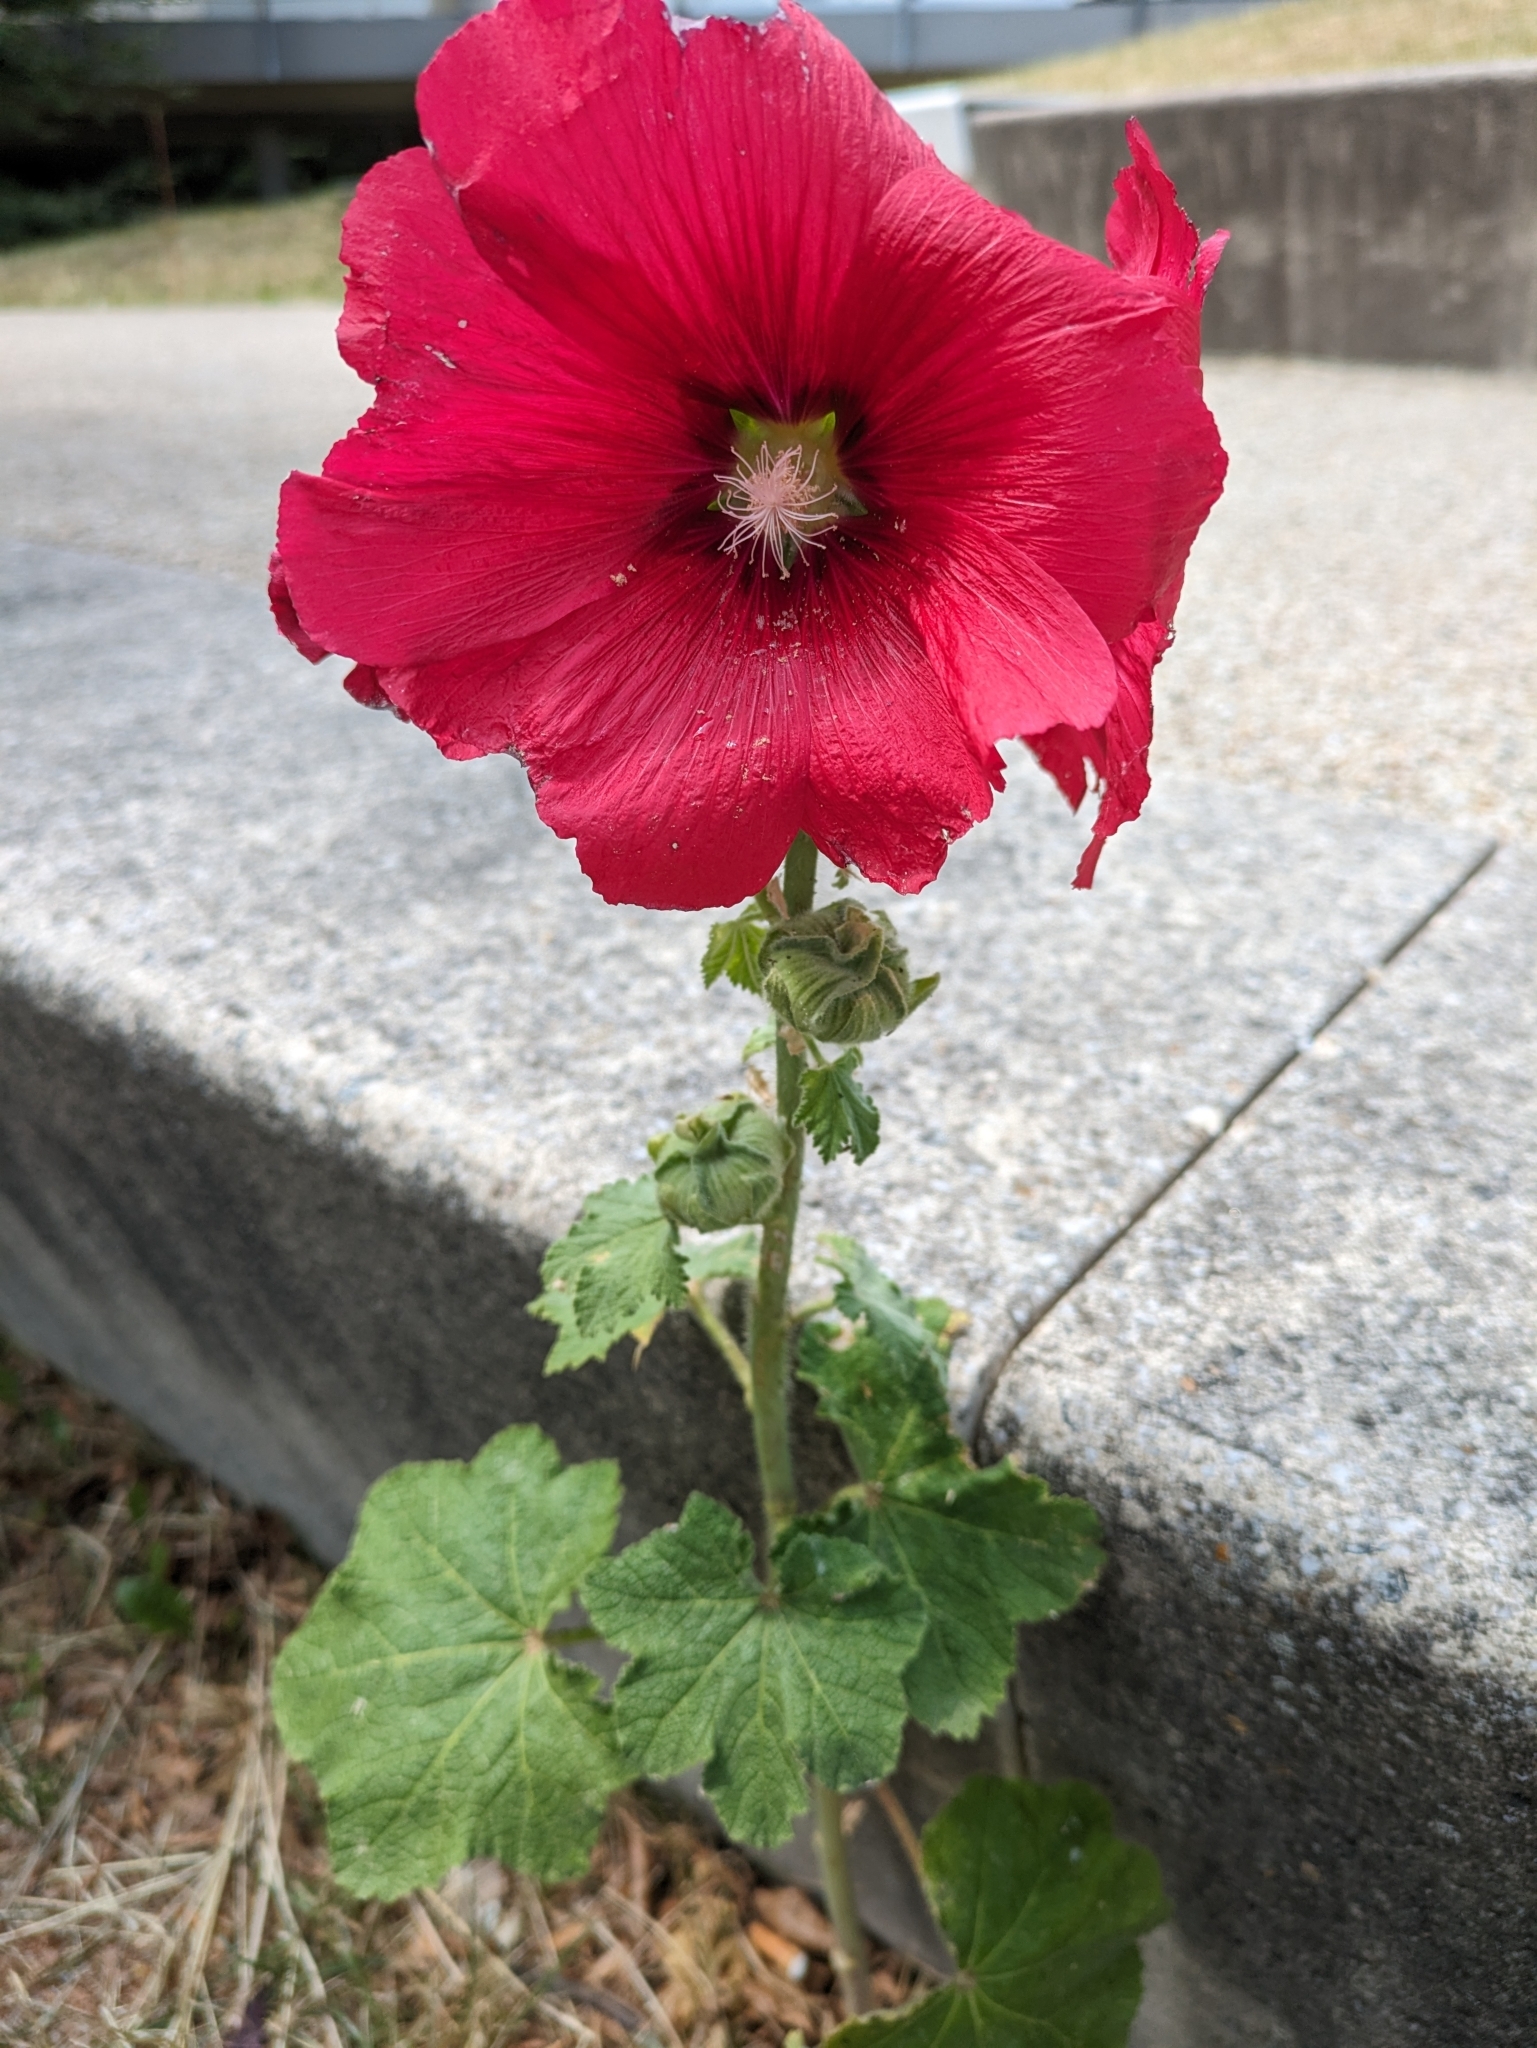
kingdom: Plantae
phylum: Tracheophyta
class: Magnoliopsida
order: Malvales
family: Malvaceae
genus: Alcea
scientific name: Alcea rosea
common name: Hollyhock
